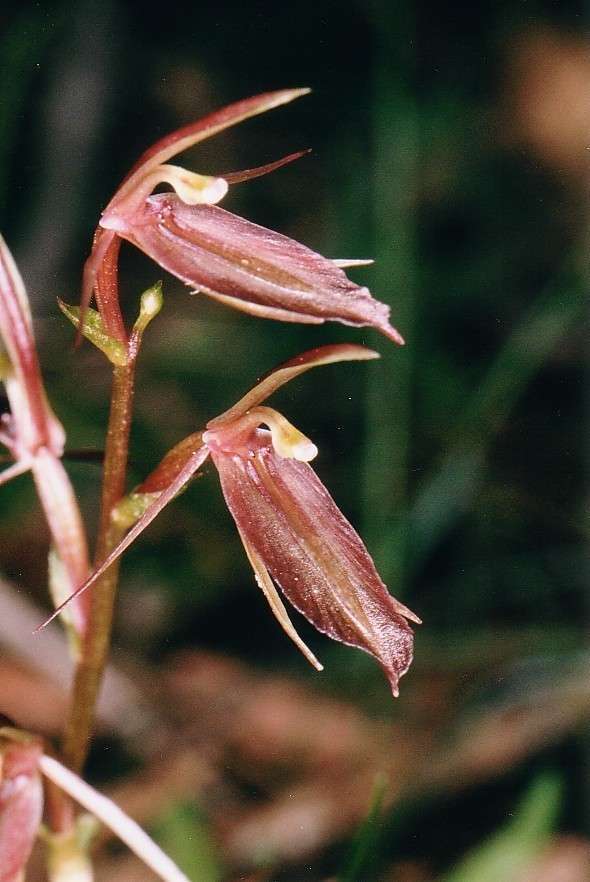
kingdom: Plantae
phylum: Tracheophyta
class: Liliopsida
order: Asparagales
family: Orchidaceae
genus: Cyrtostylis
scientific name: Cyrtostylis robusta
